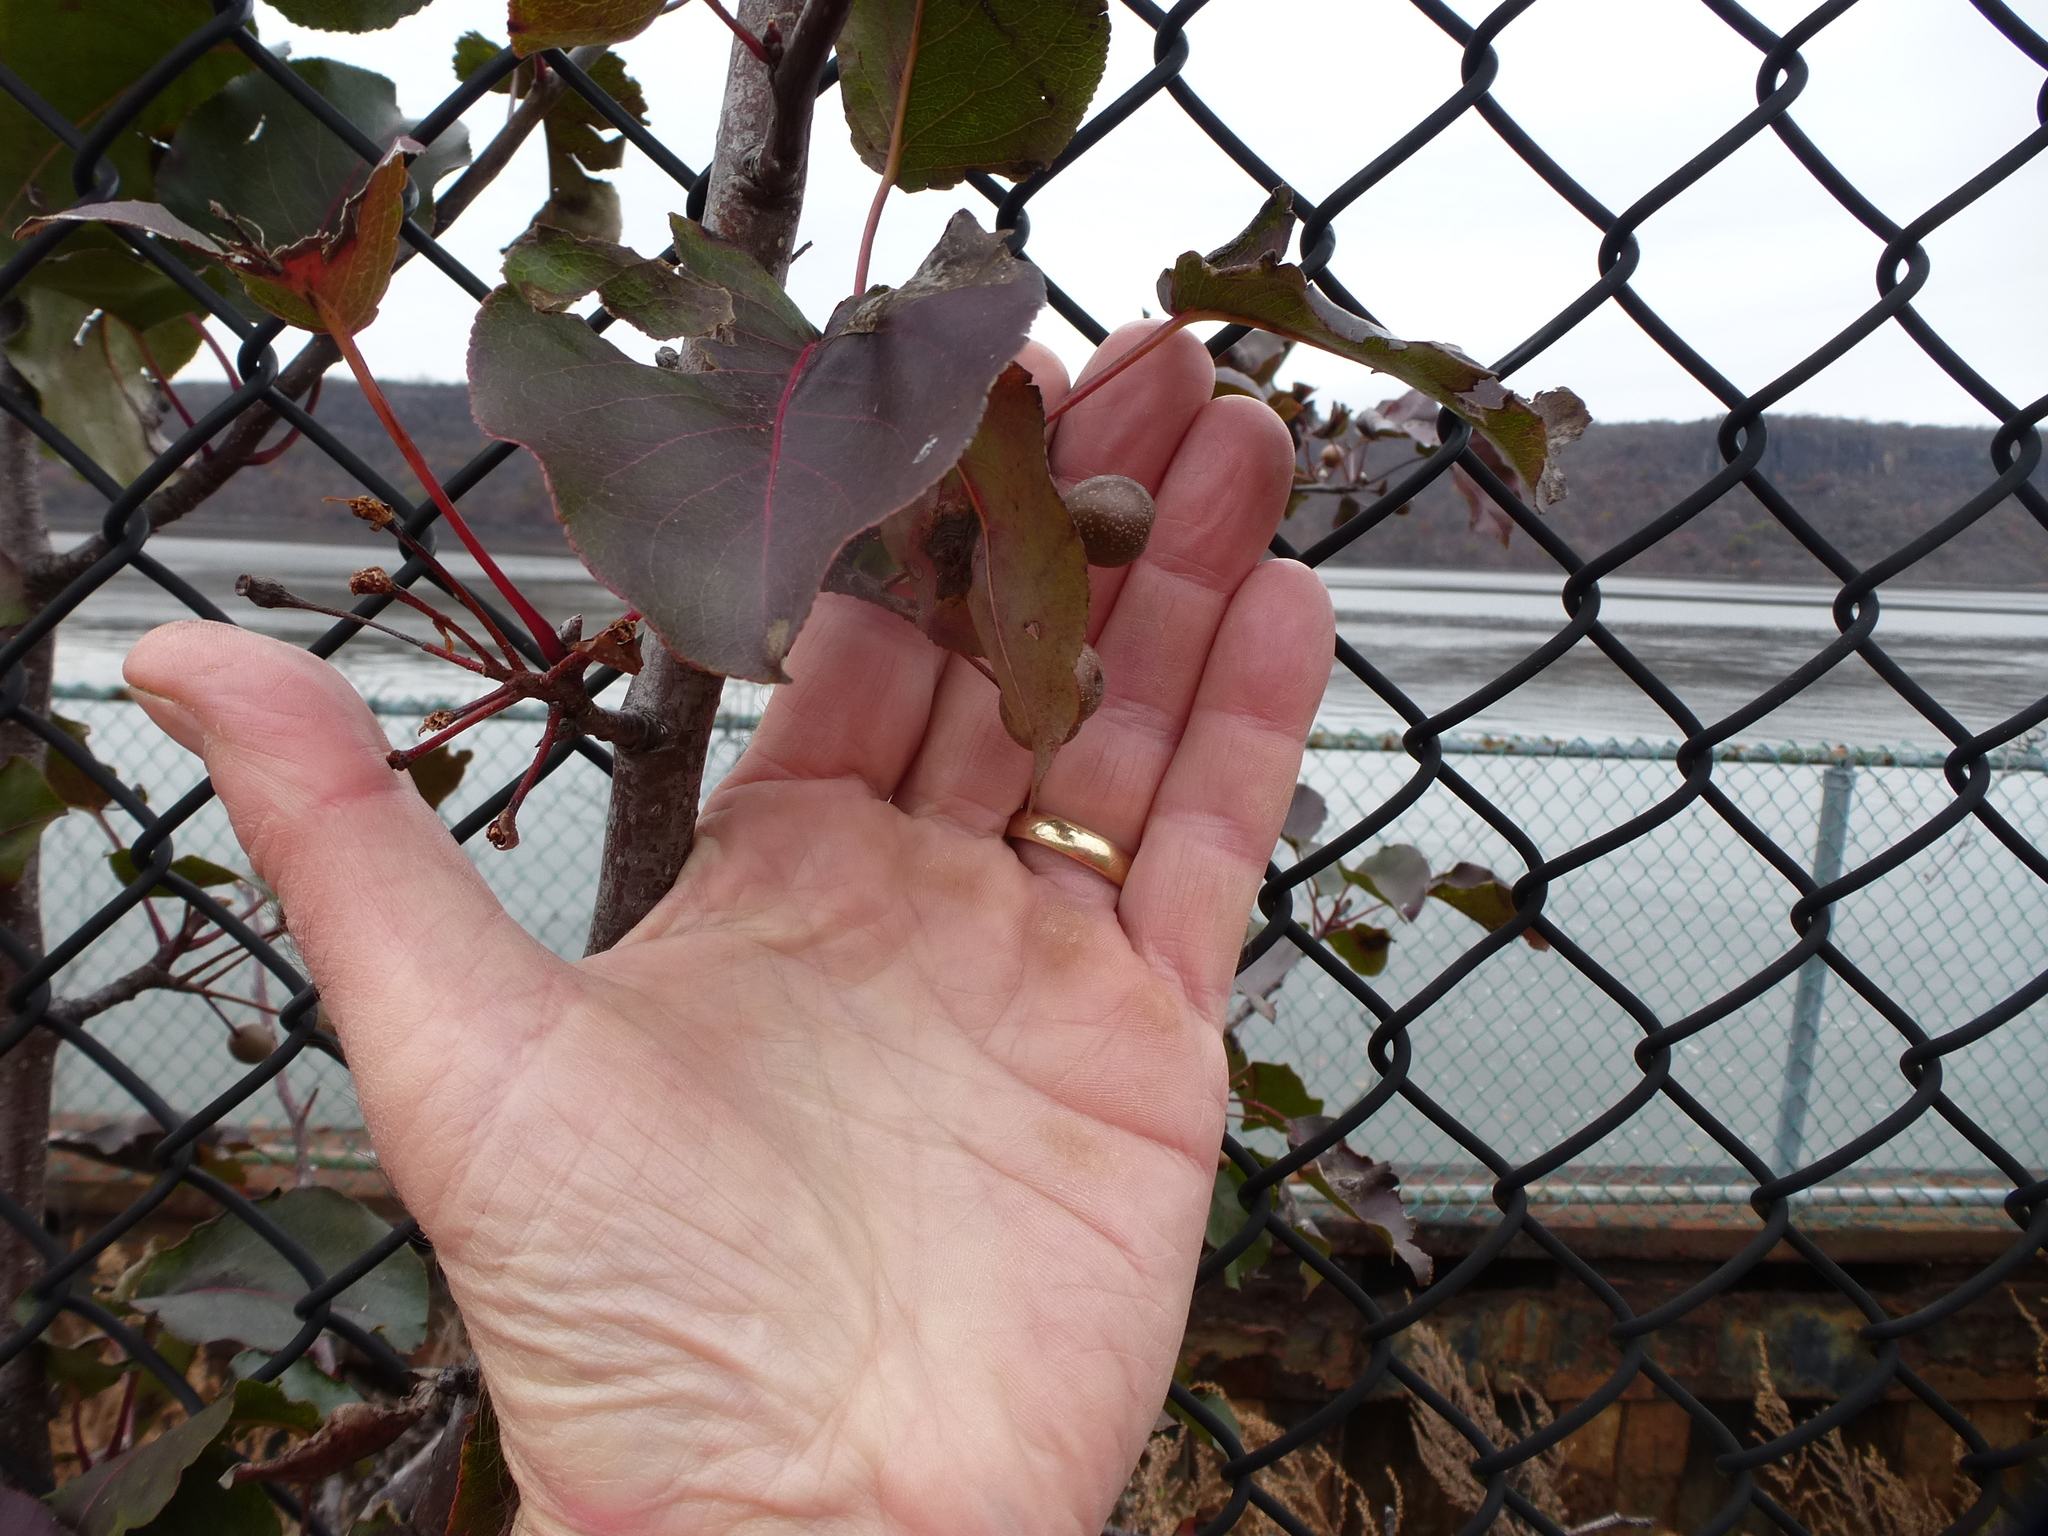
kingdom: Plantae
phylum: Tracheophyta
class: Magnoliopsida
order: Rosales
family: Rosaceae
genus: Pyrus
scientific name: Pyrus calleryana
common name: Callery pear
